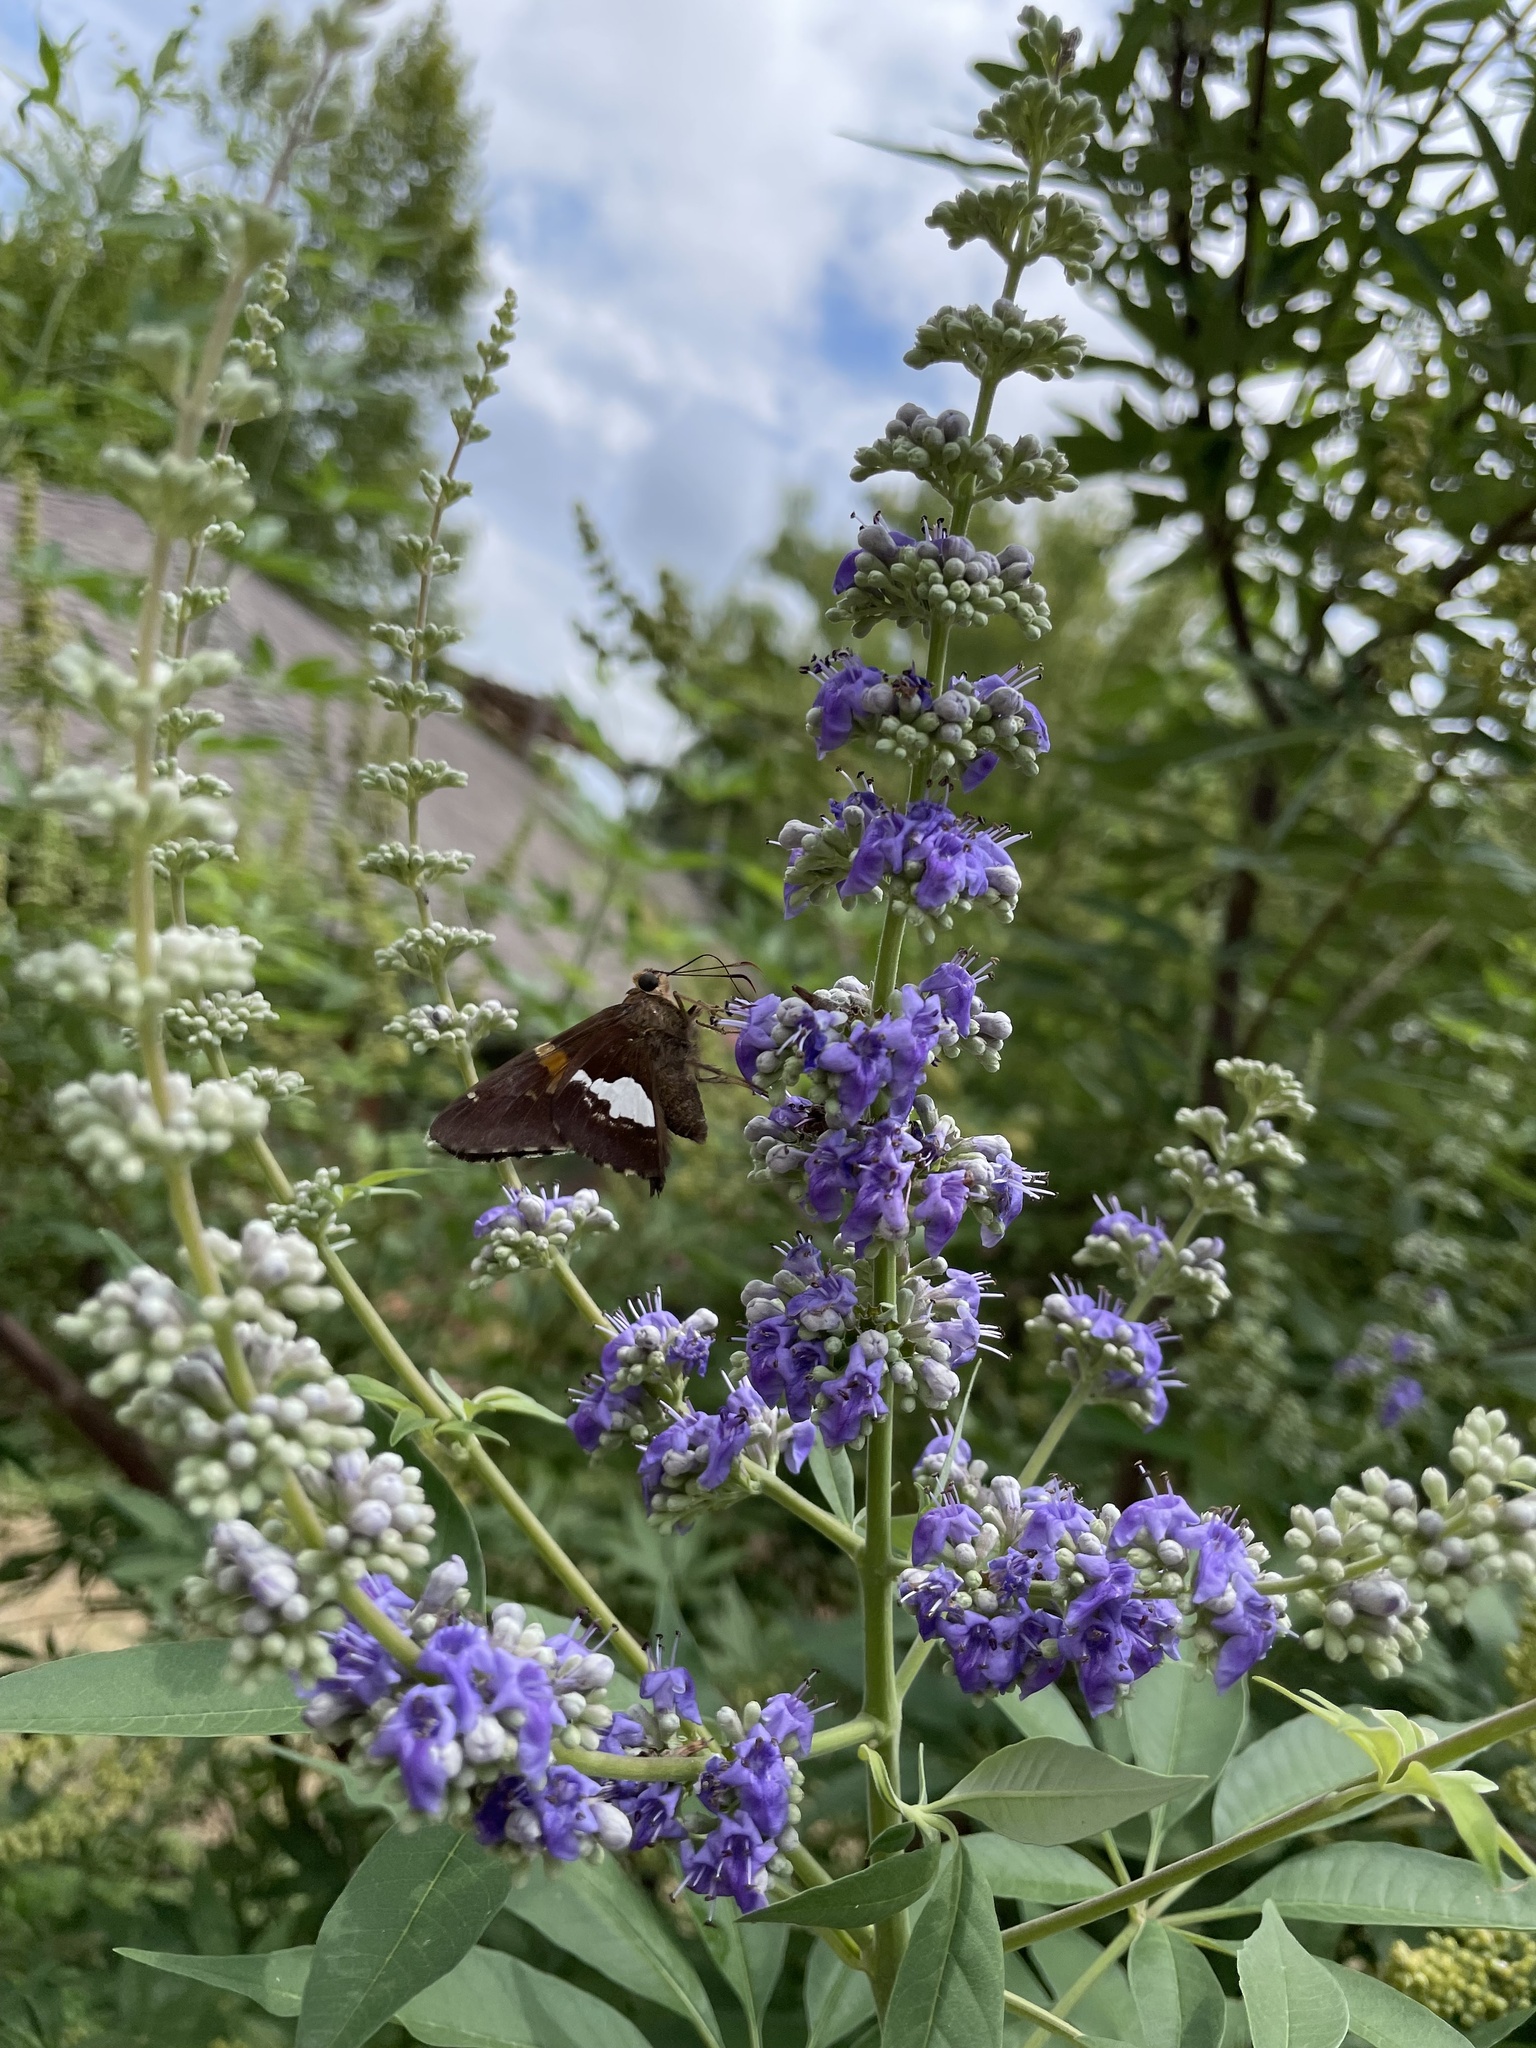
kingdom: Animalia
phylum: Arthropoda
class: Insecta
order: Lepidoptera
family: Hesperiidae
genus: Epargyreus
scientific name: Epargyreus clarus
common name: Silver-spotted skipper
